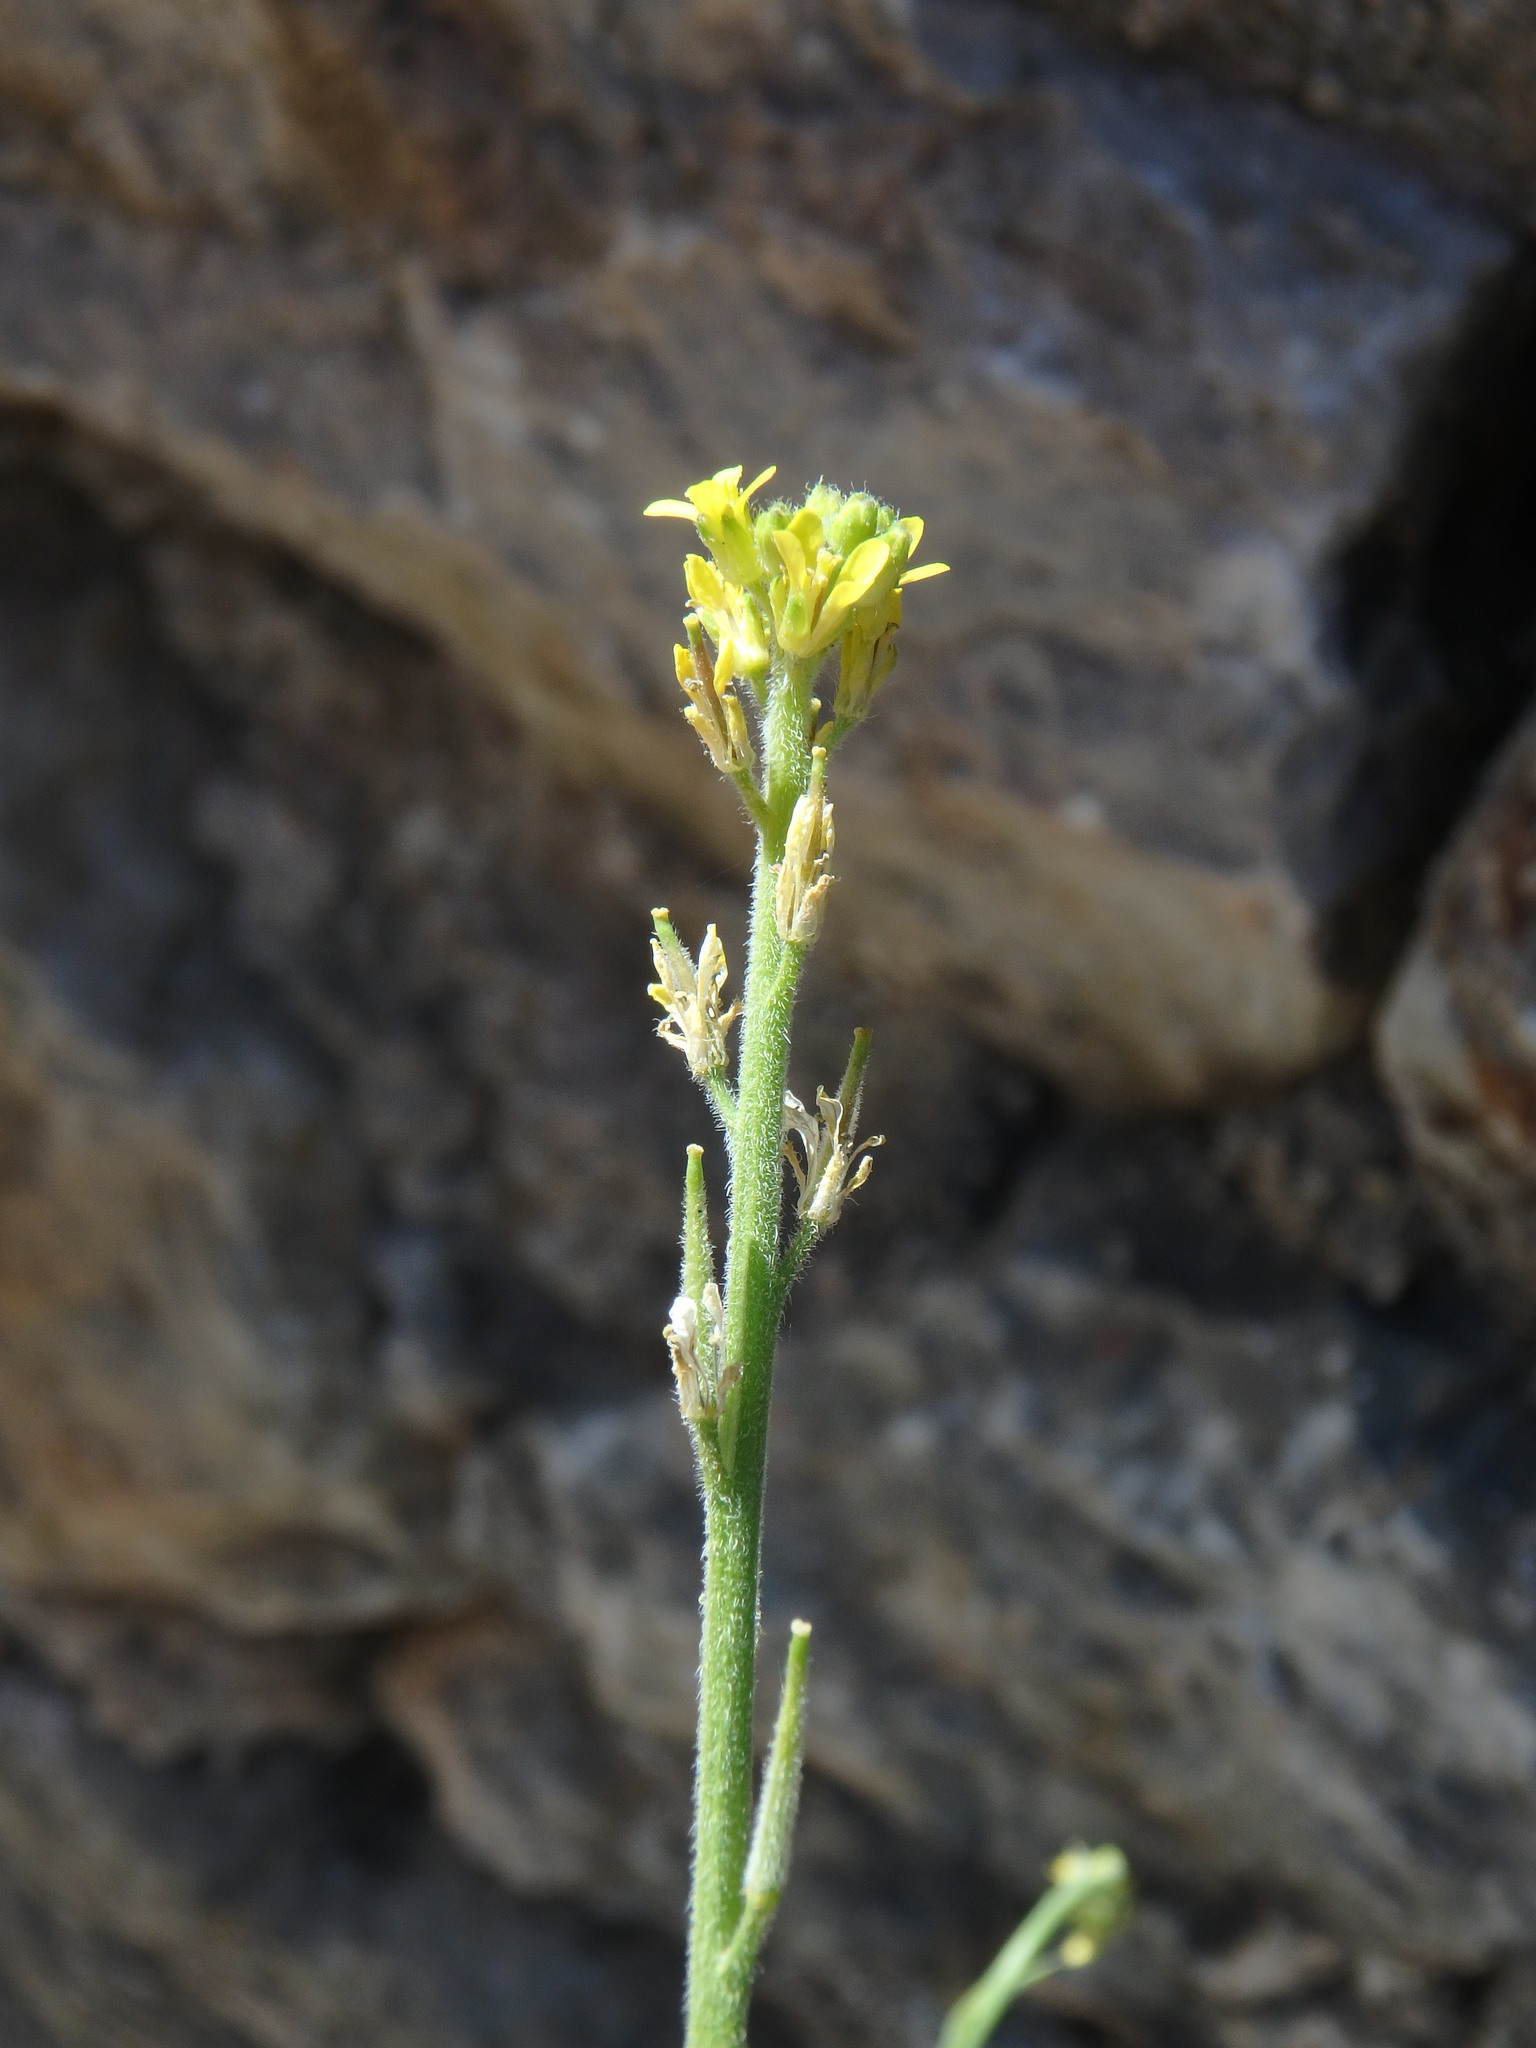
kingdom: Plantae
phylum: Tracheophyta
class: Magnoliopsida
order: Brassicales
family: Brassicaceae
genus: Sisymbrium
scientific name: Sisymbrium officinale
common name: Hedge mustard
